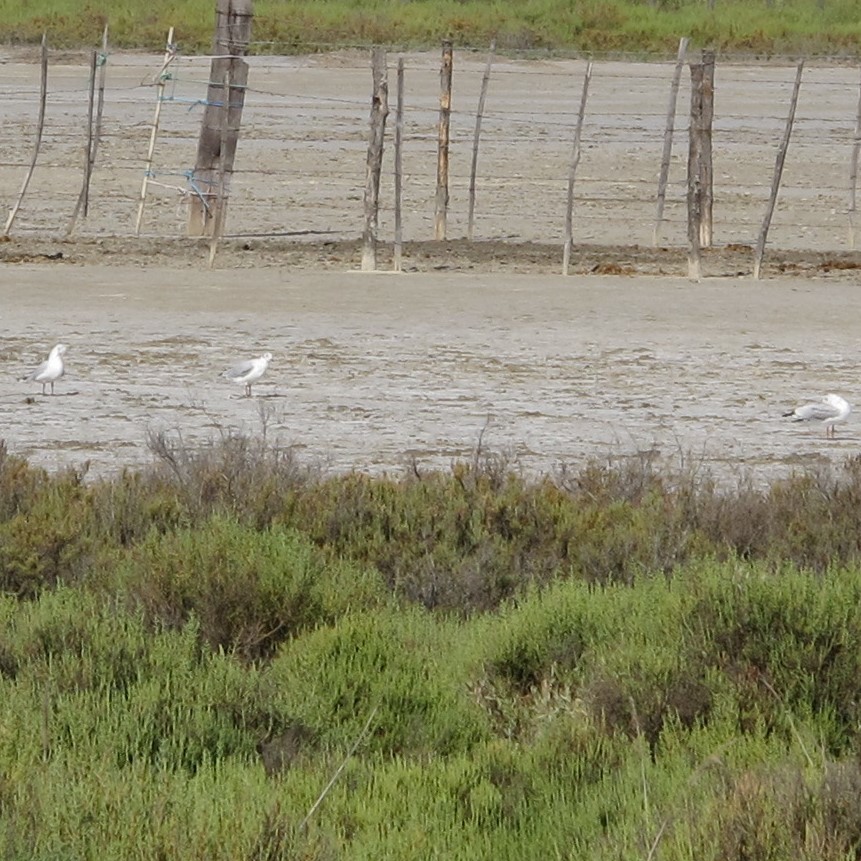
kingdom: Animalia
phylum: Chordata
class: Aves
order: Charadriiformes
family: Laridae
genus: Chroicocephalus
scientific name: Chroicocephalus ridibundus
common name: Black-headed gull
